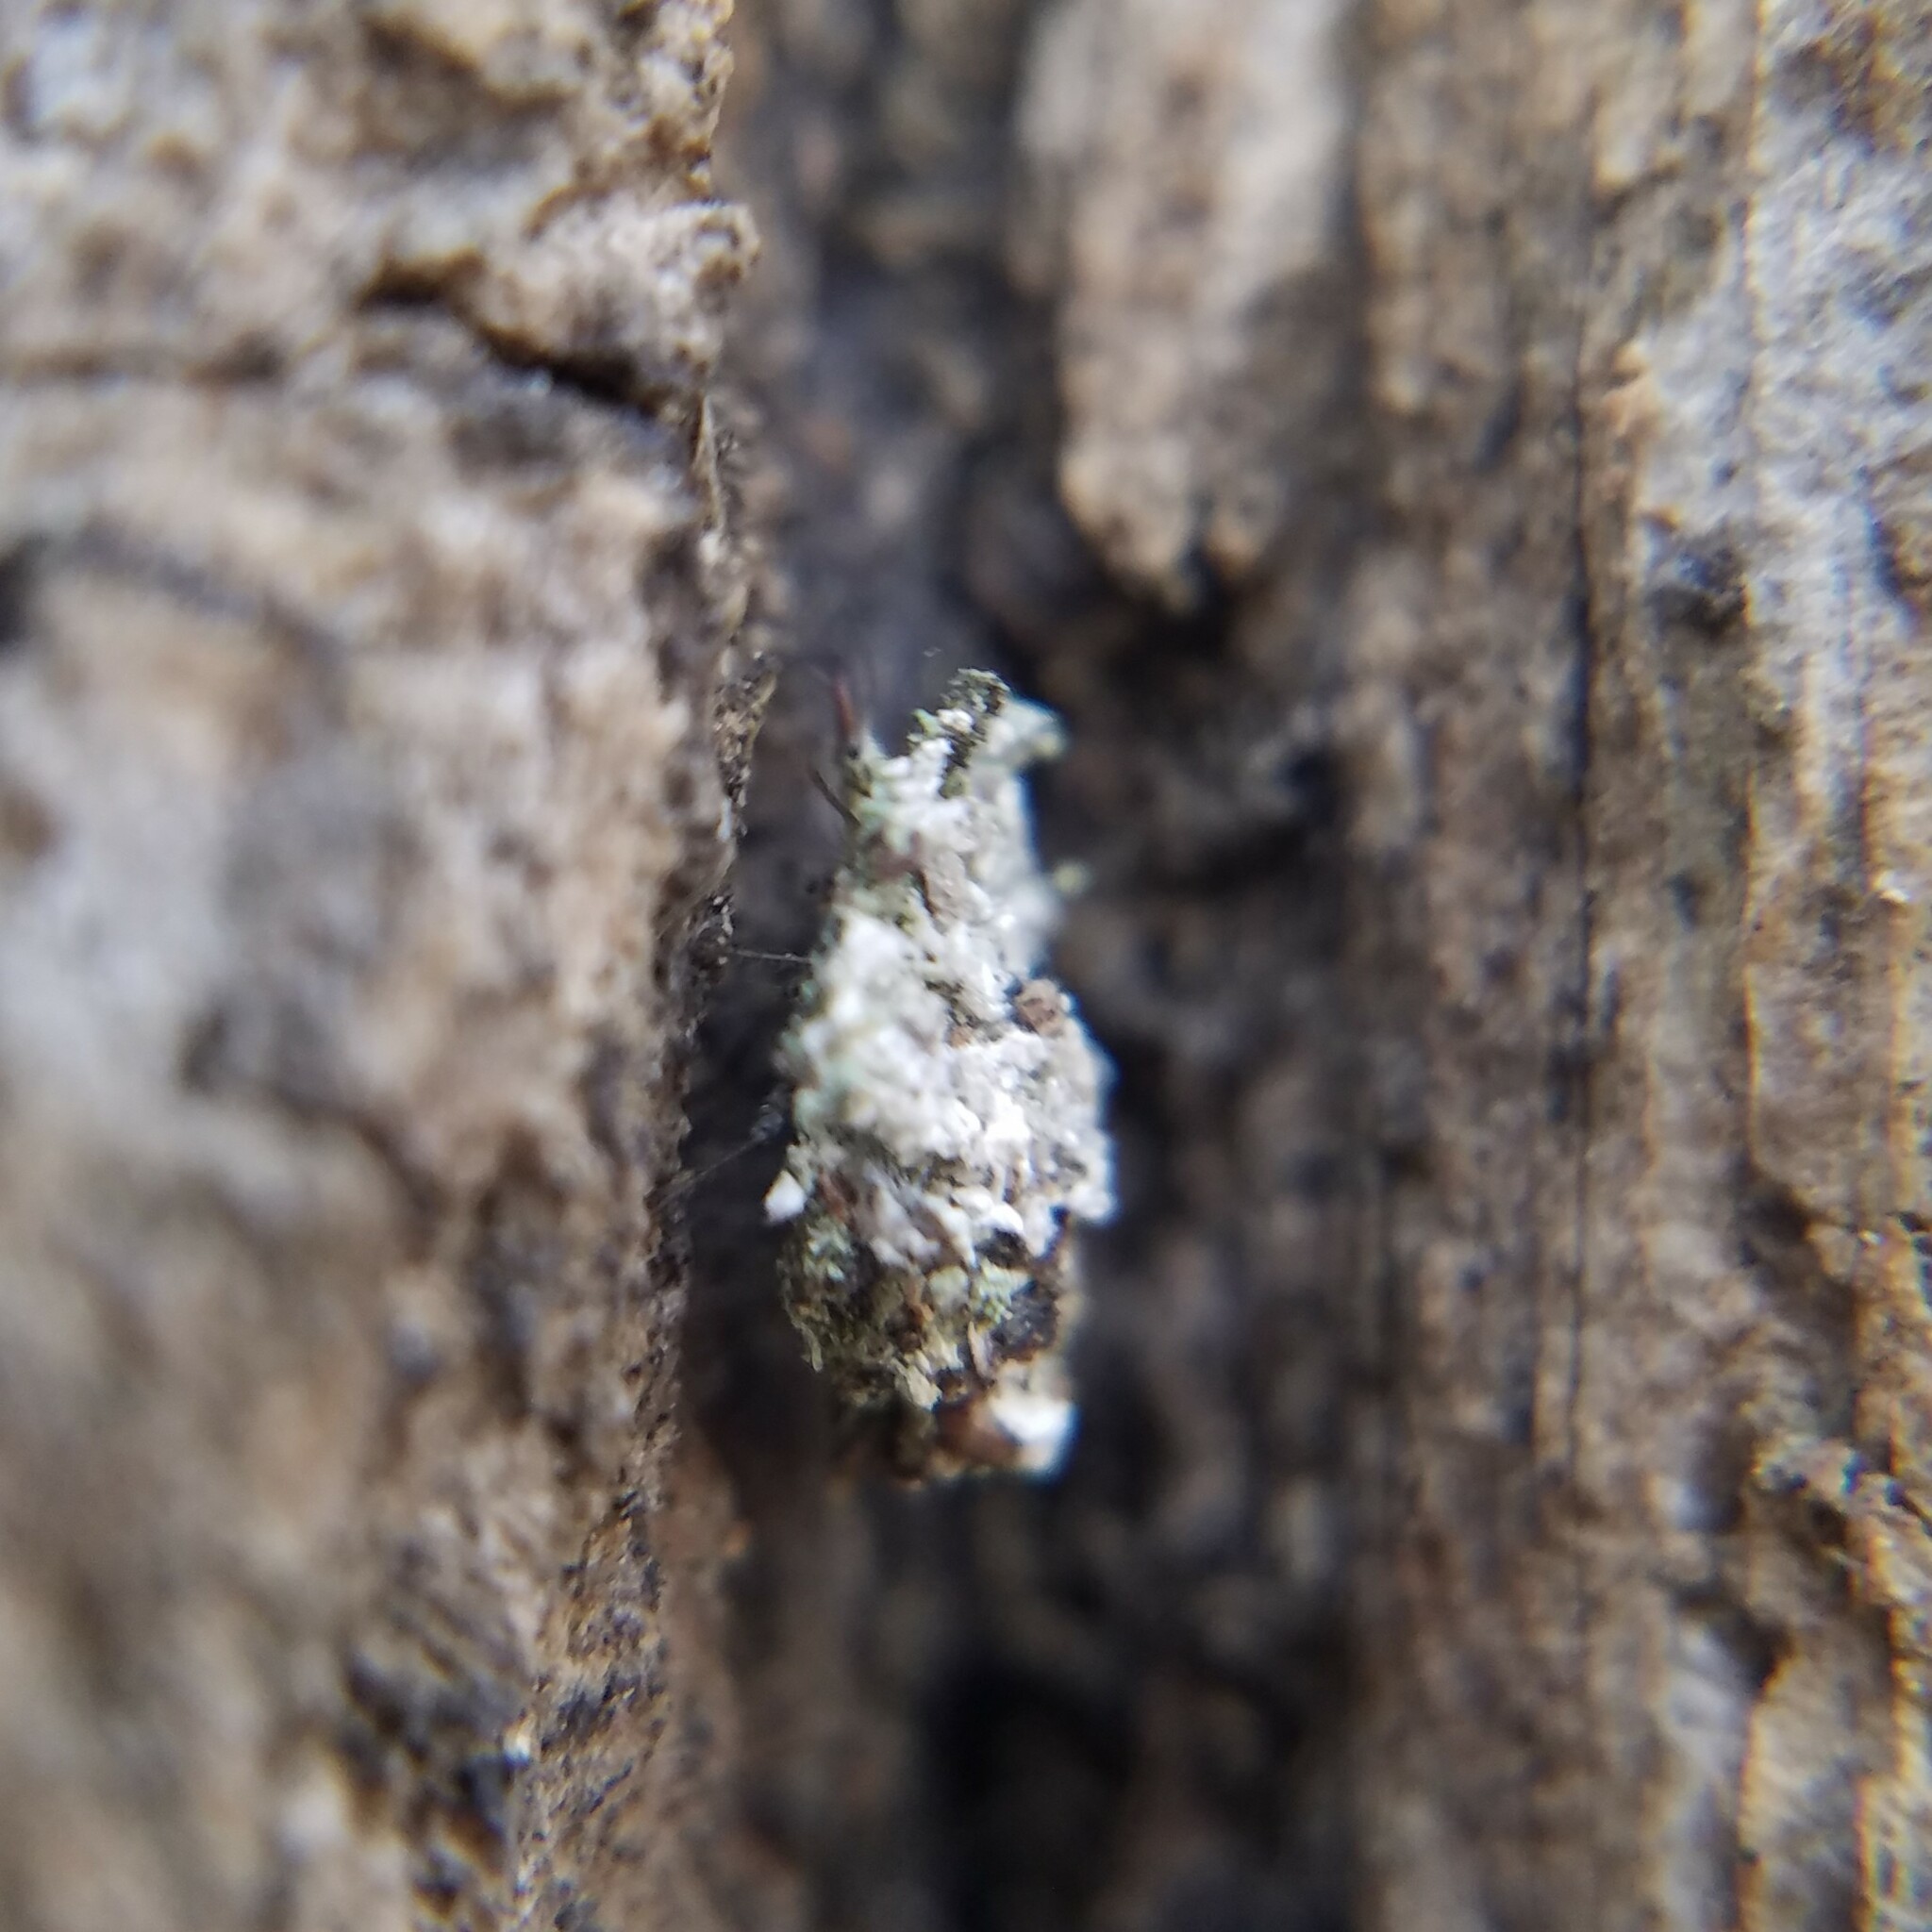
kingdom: Animalia
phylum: Arthropoda
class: Insecta
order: Neuroptera
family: Chrysopidae
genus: Leucochrysa
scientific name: Leucochrysa pavida
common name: Lichen-carrying green lacewing
